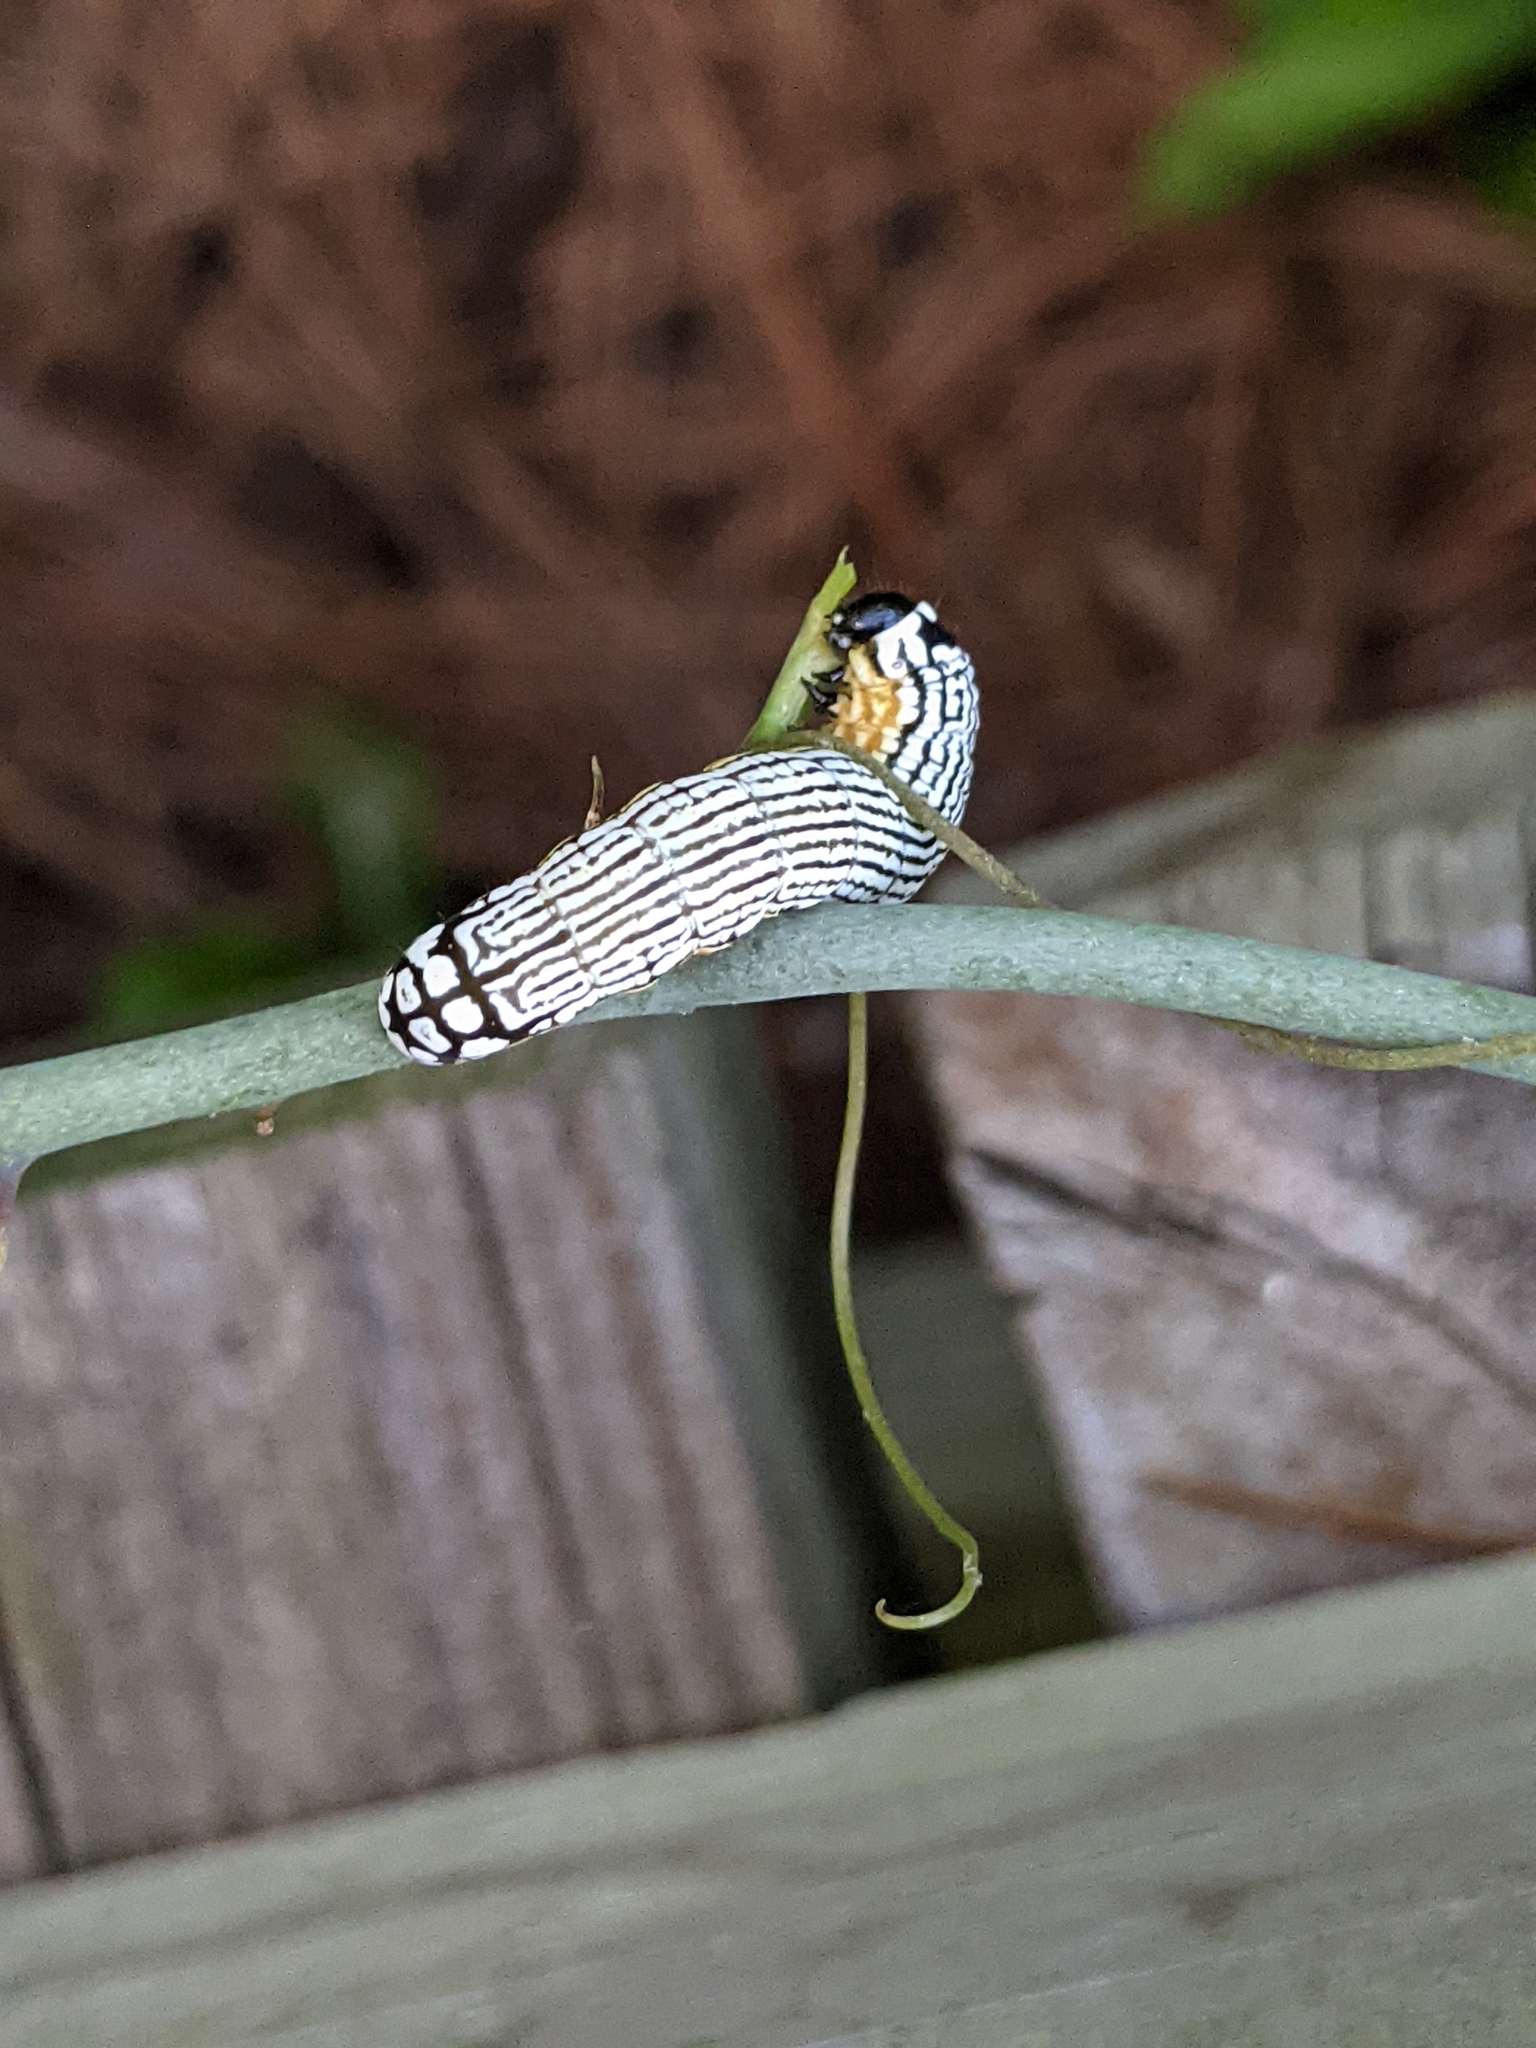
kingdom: Animalia
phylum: Arthropoda
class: Insecta
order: Lepidoptera
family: Noctuidae
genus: Phosphila
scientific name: Phosphila turbulenta
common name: Turbulent phosphila moth
